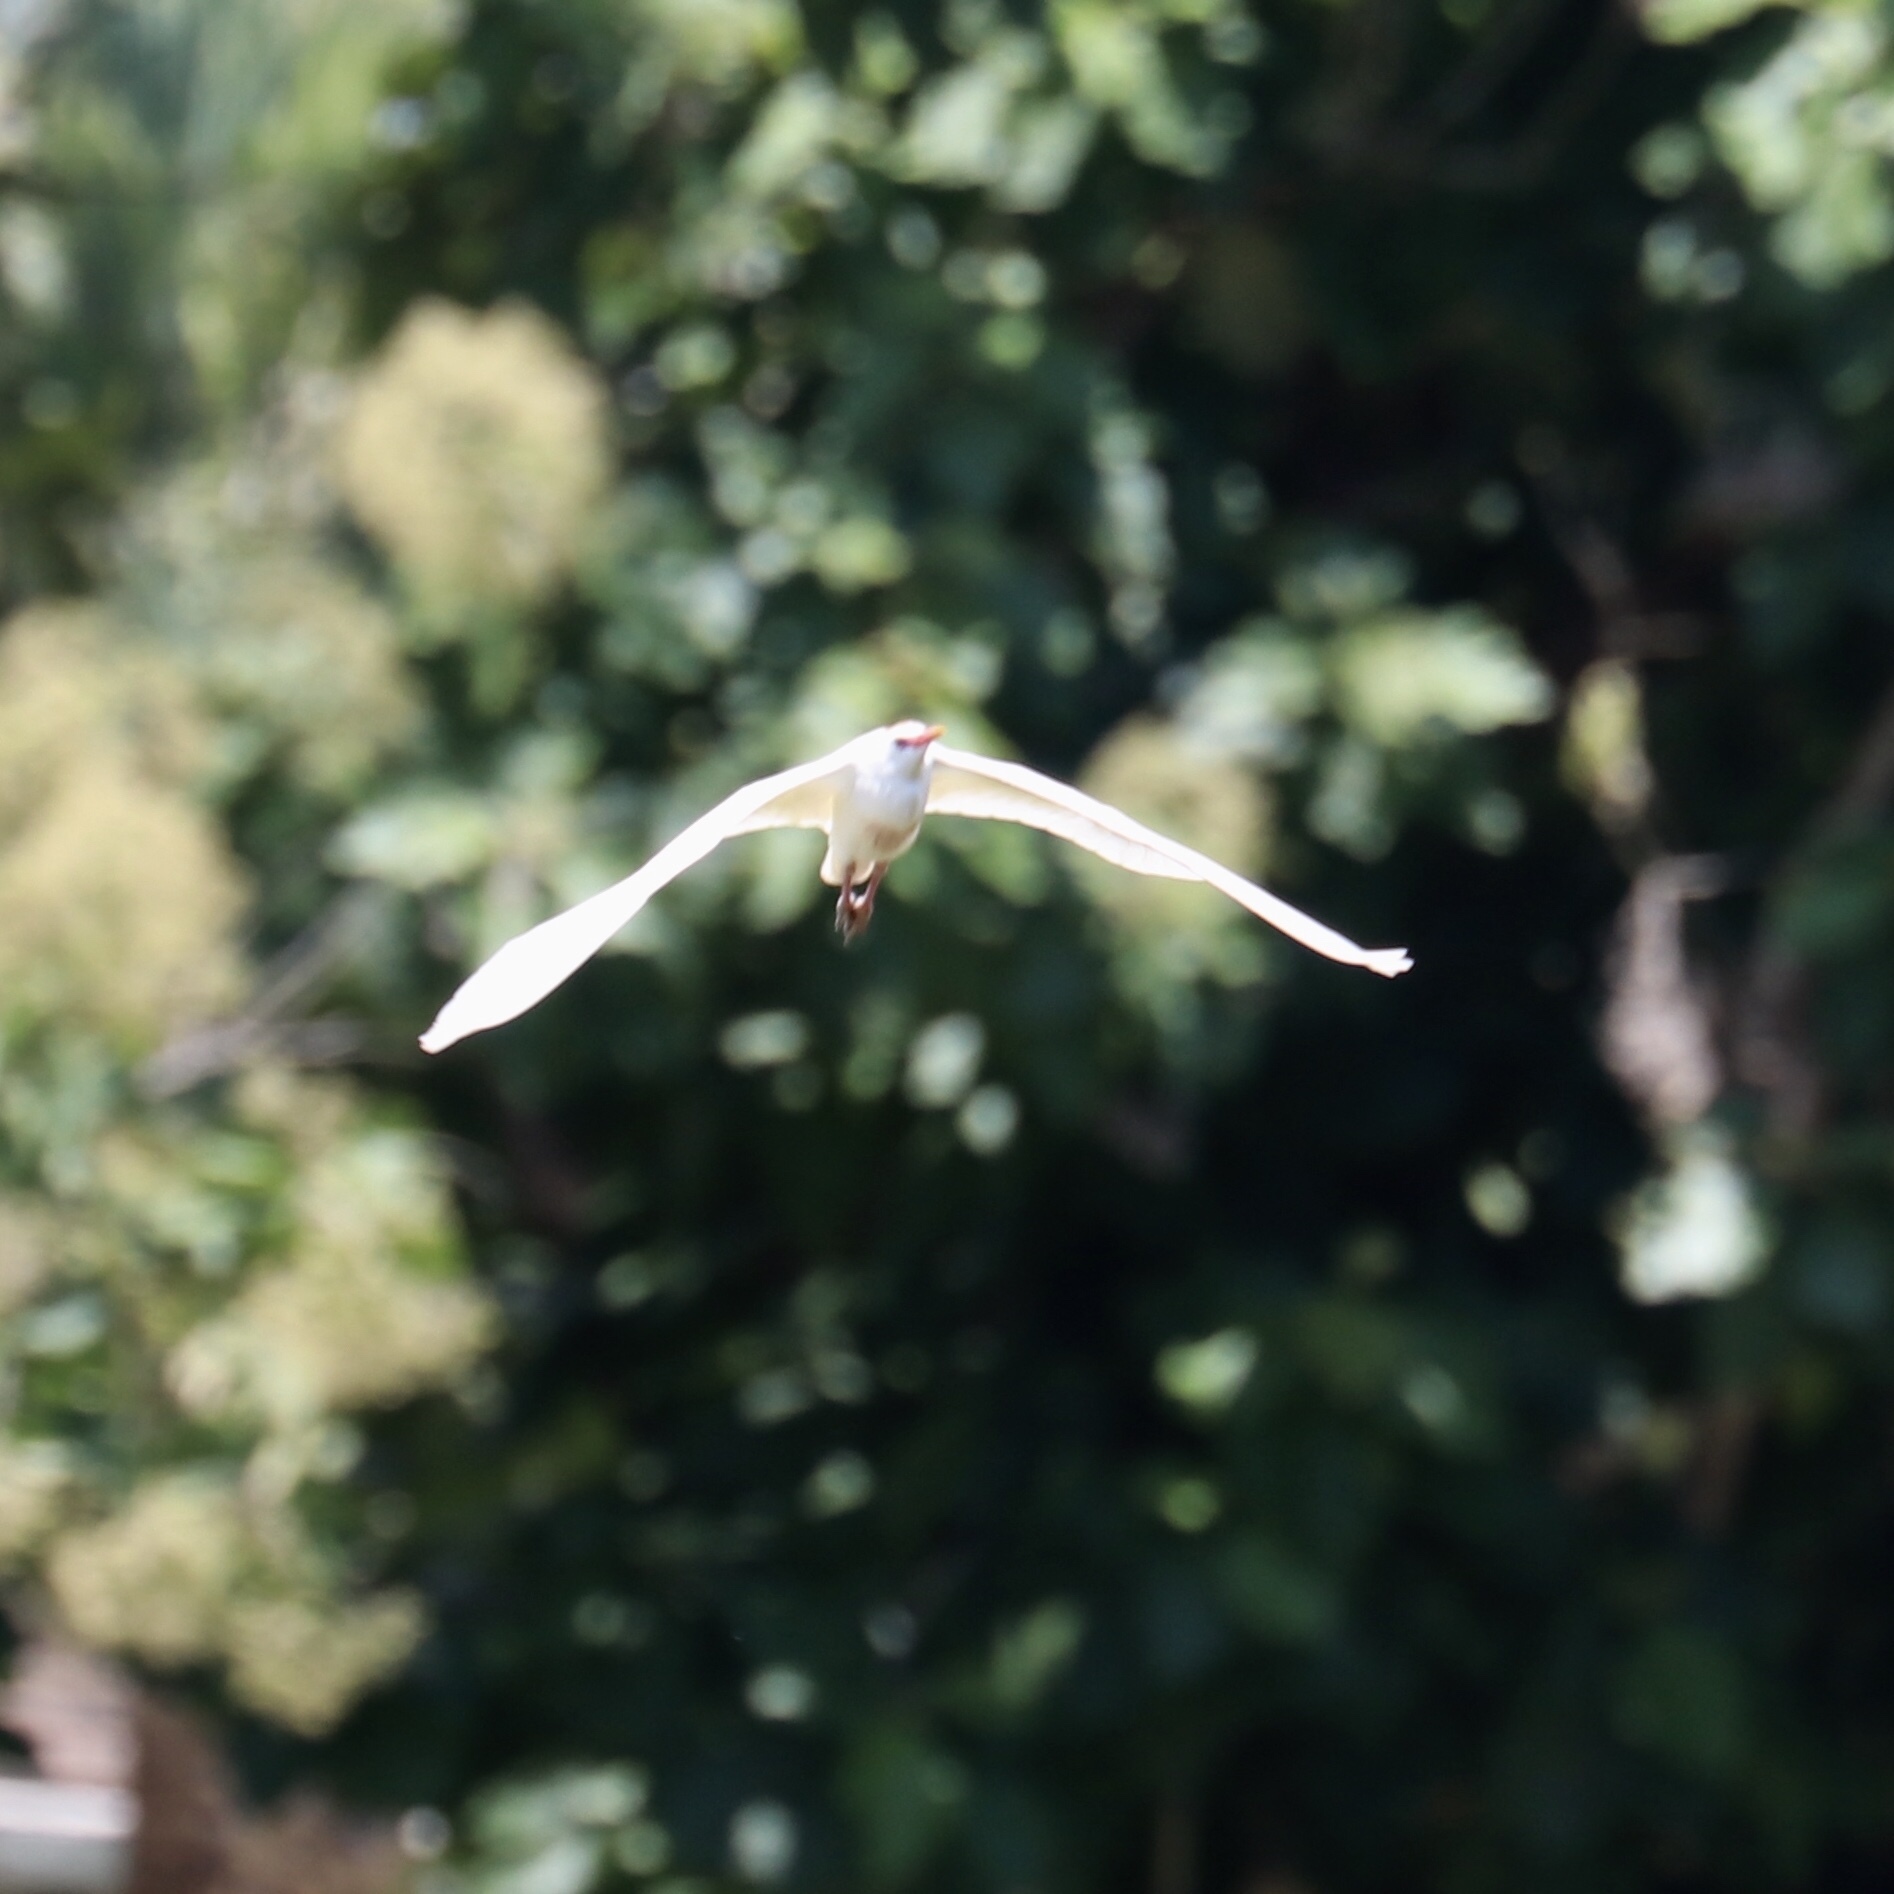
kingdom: Animalia
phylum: Chordata
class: Aves
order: Pelecaniformes
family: Ardeidae
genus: Bubulcus
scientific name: Bubulcus ibis
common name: Cattle egret
